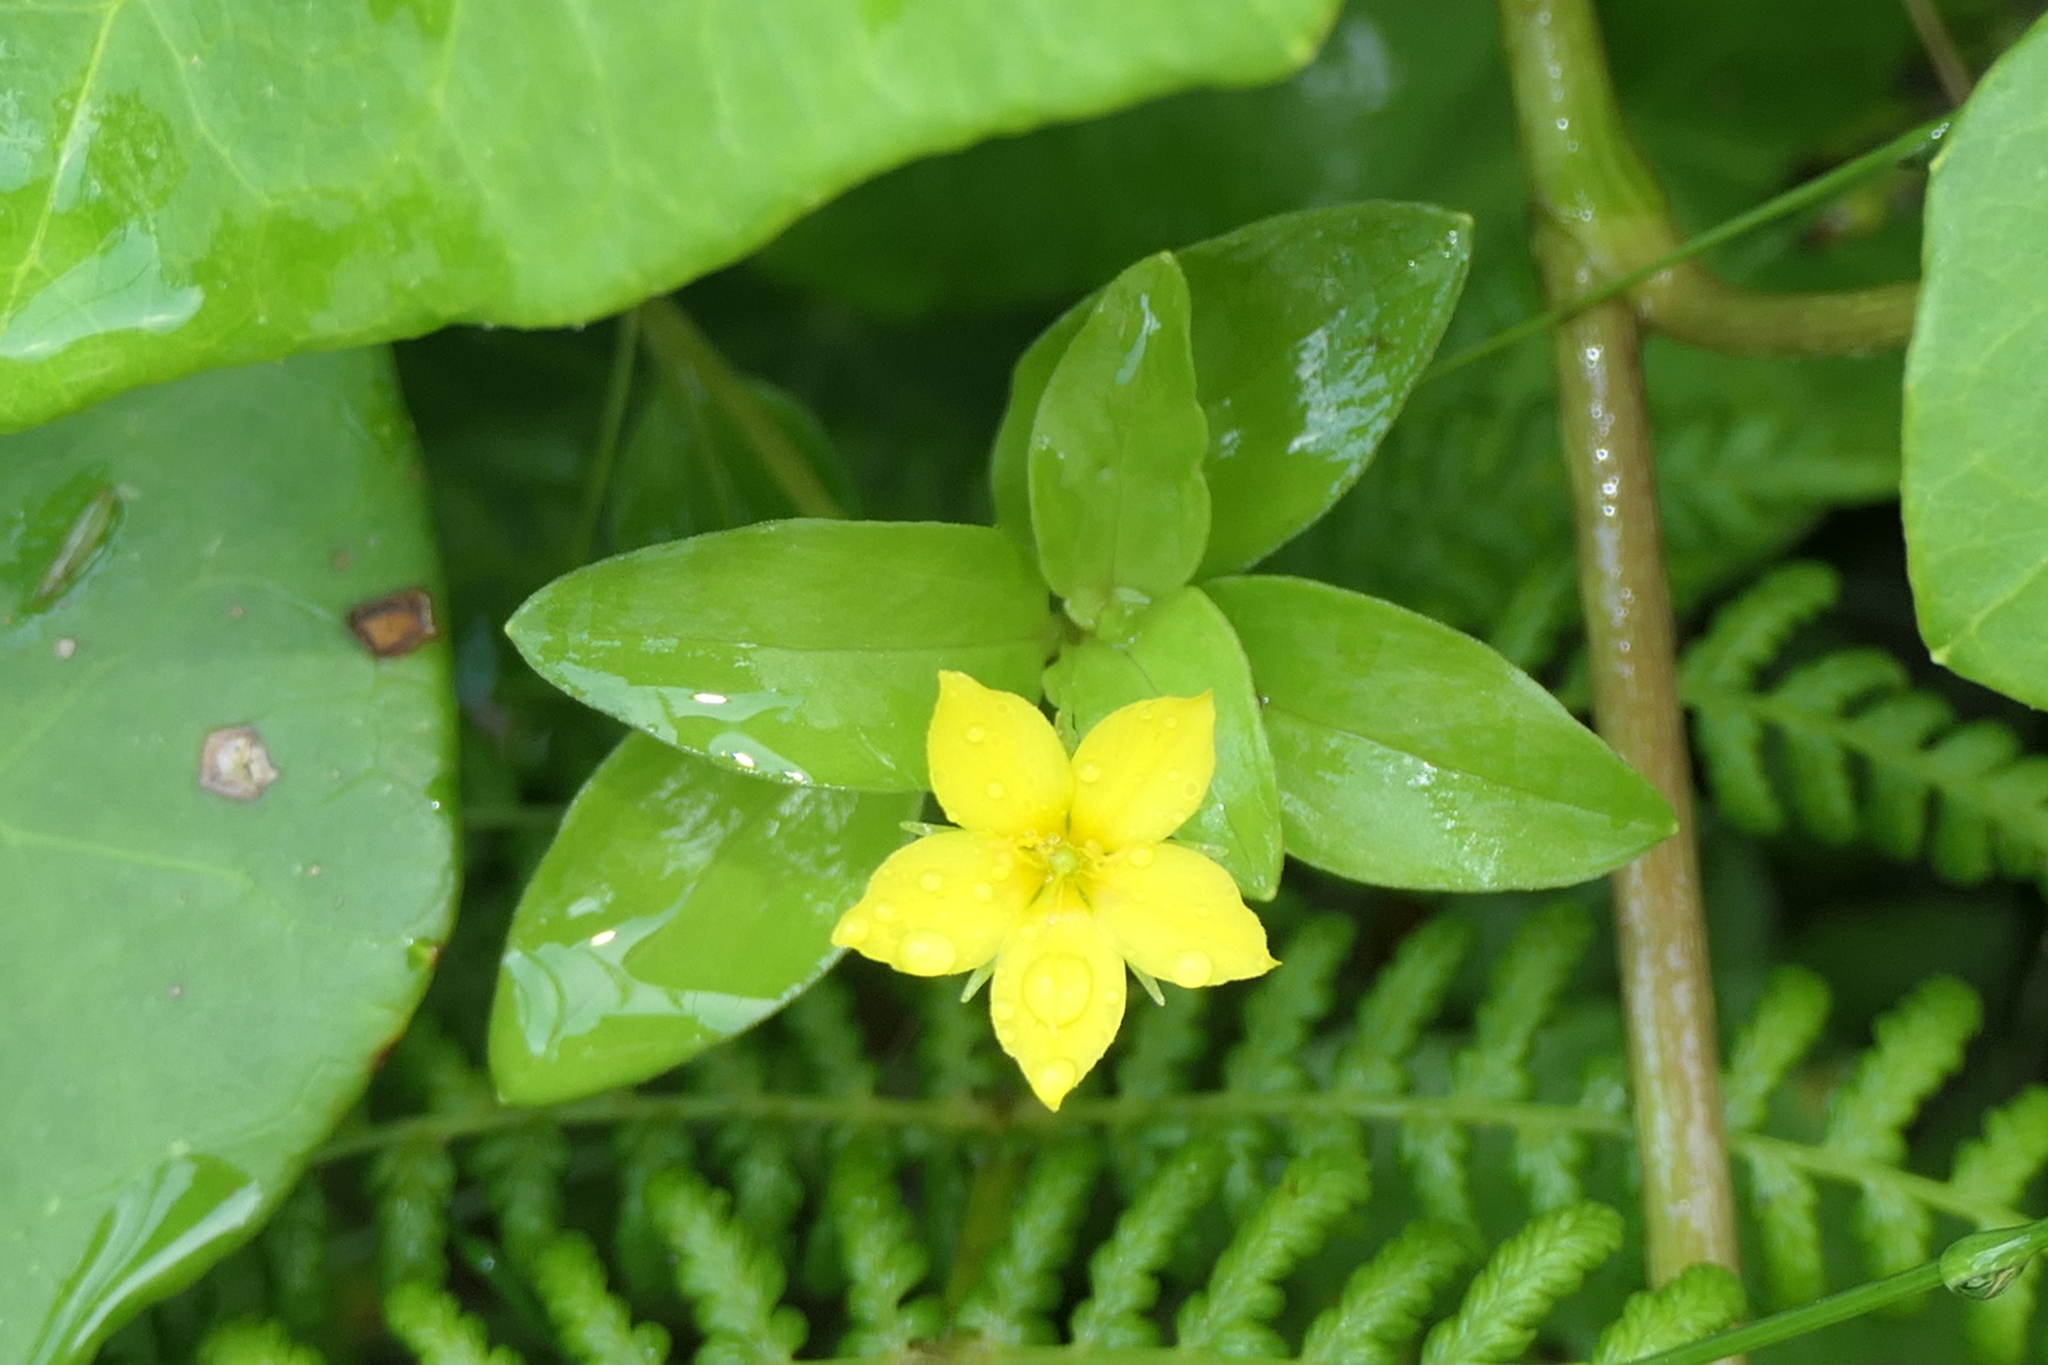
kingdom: Plantae
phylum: Tracheophyta
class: Magnoliopsida
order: Ericales
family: Primulaceae
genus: Lysimachia
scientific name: Lysimachia azorica
